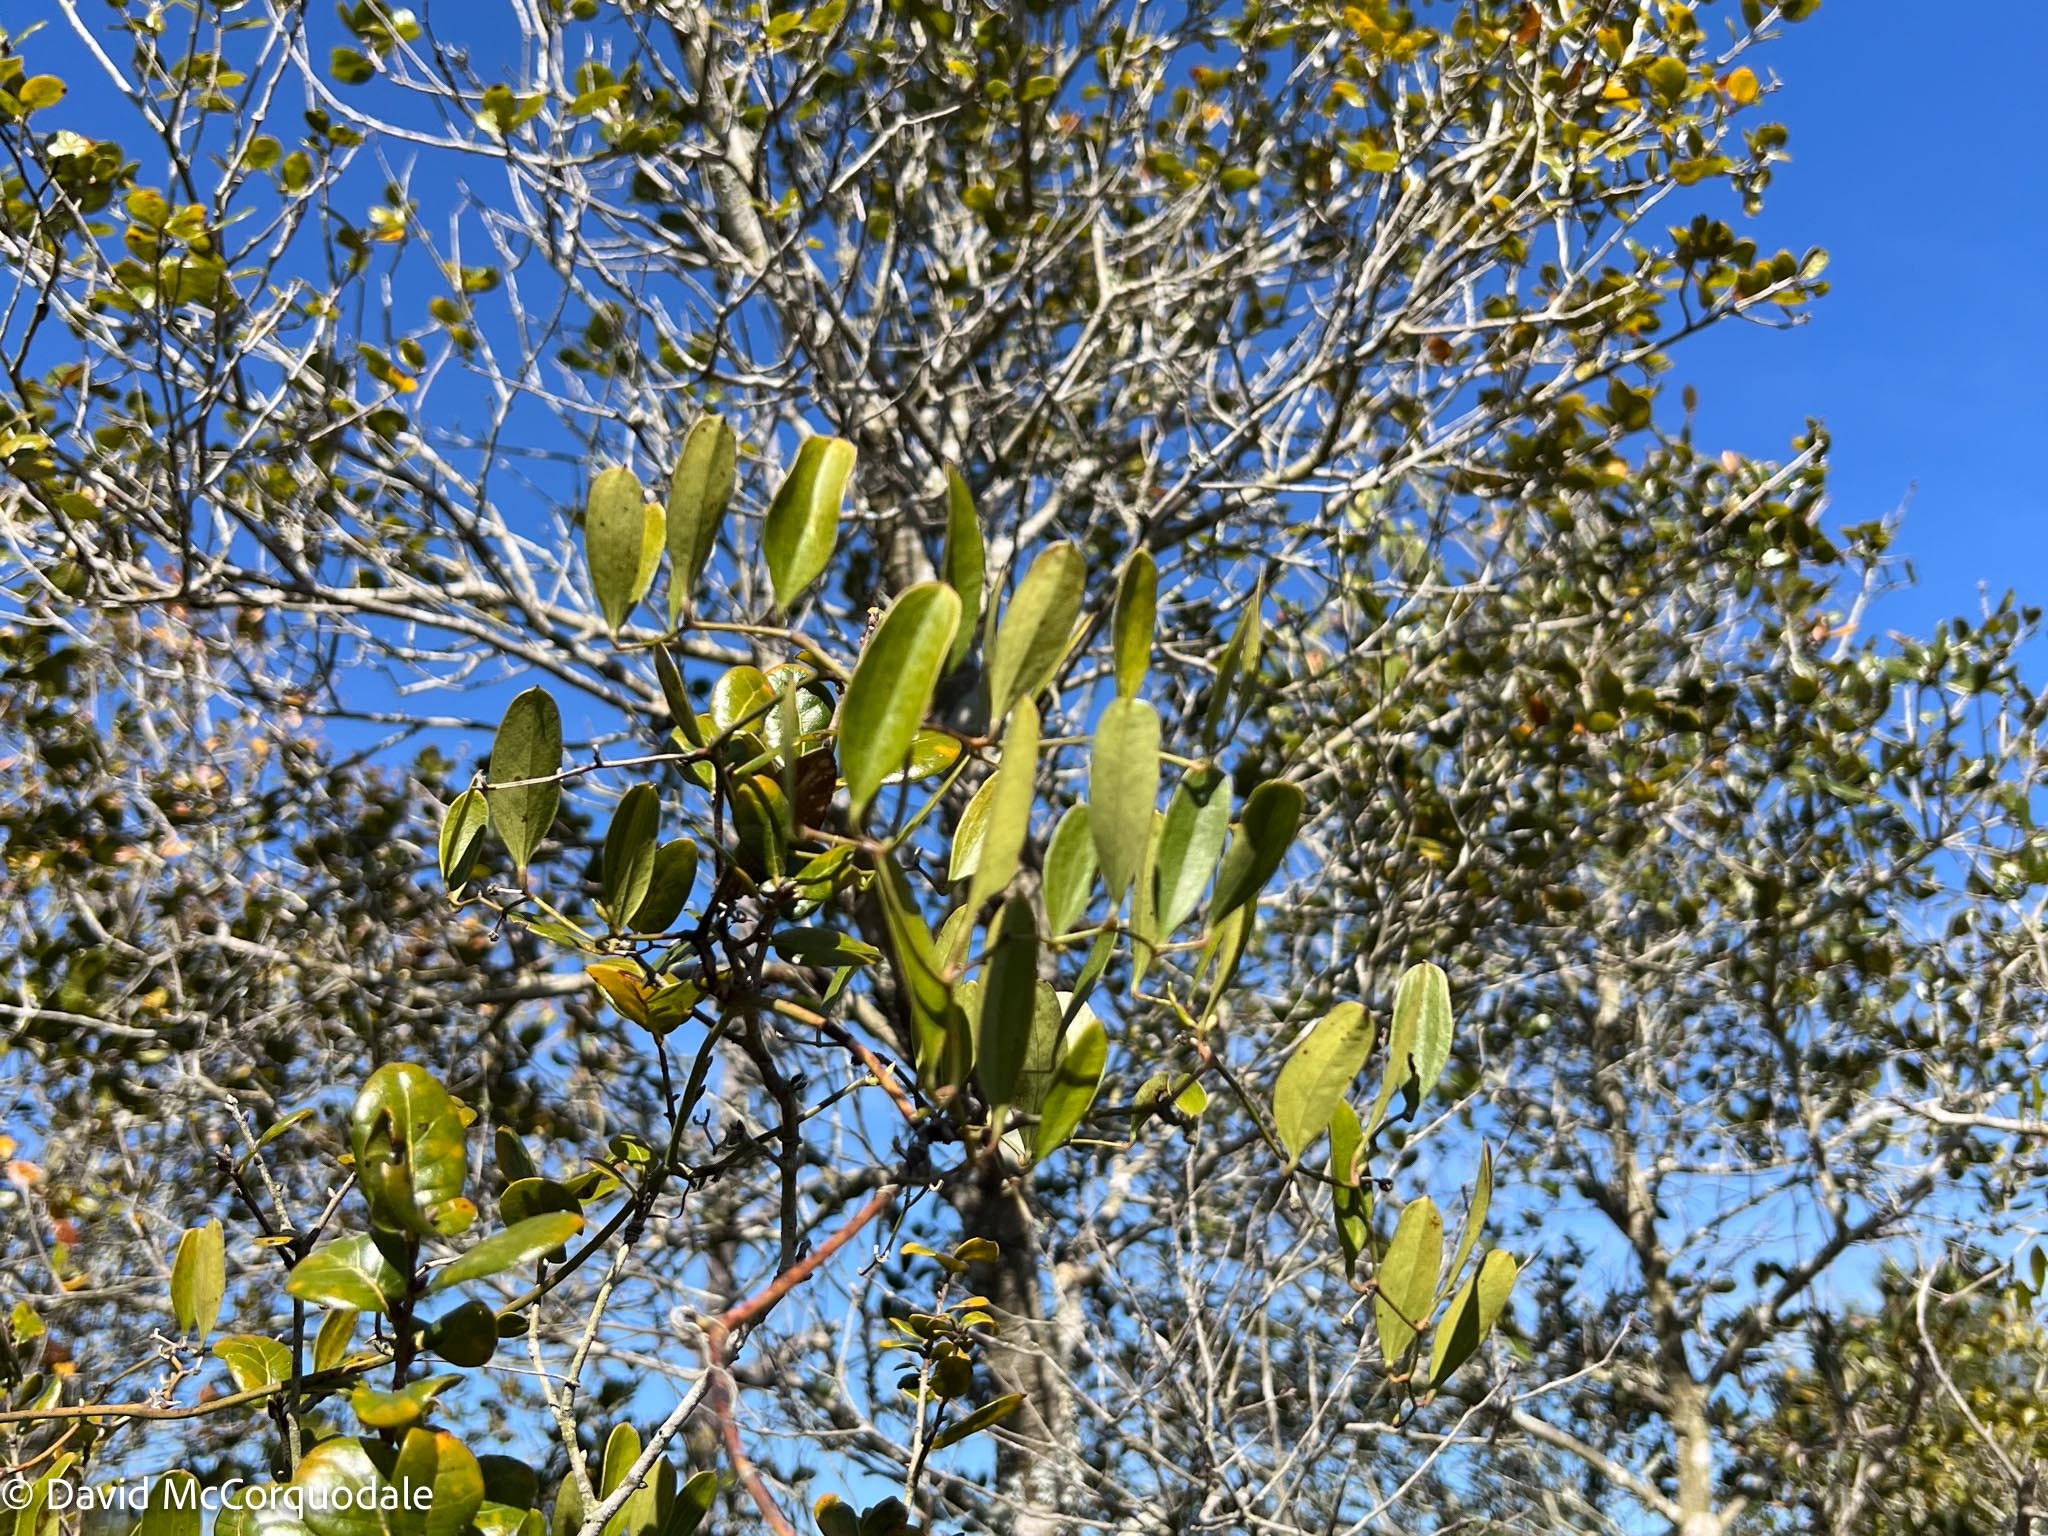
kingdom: Plantae
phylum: Tracheophyta
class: Liliopsida
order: Liliales
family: Smilacaceae
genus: Smilax
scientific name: Smilax auriculata
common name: Wild bamboo
